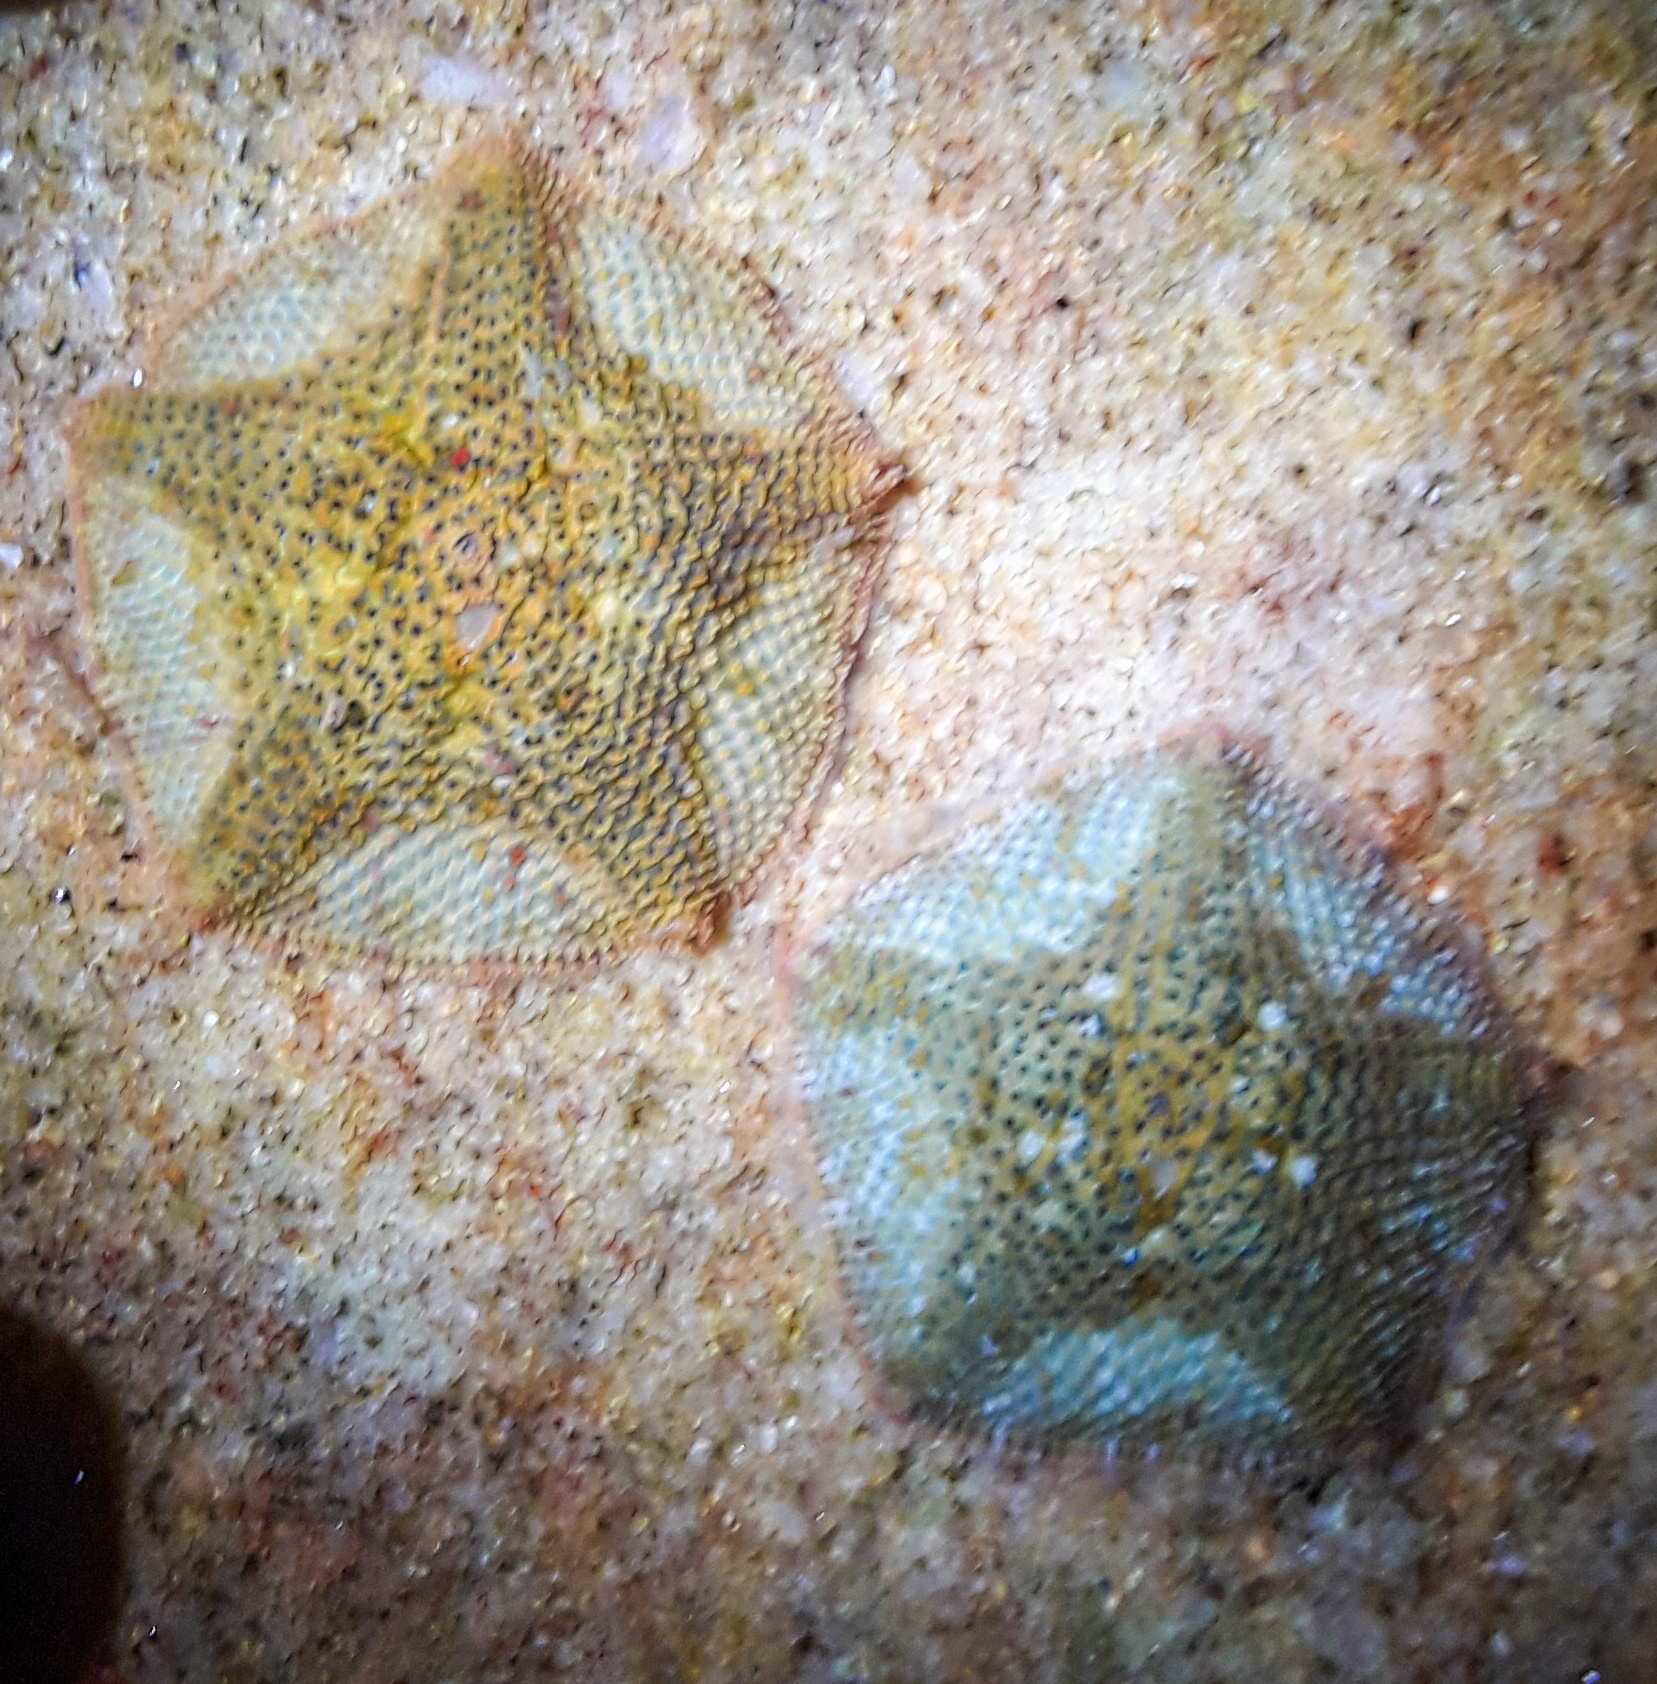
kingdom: Animalia
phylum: Echinodermata
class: Asteroidea
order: Valvatida
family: Asterinidae
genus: Parvulastra
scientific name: Parvulastra exigua
